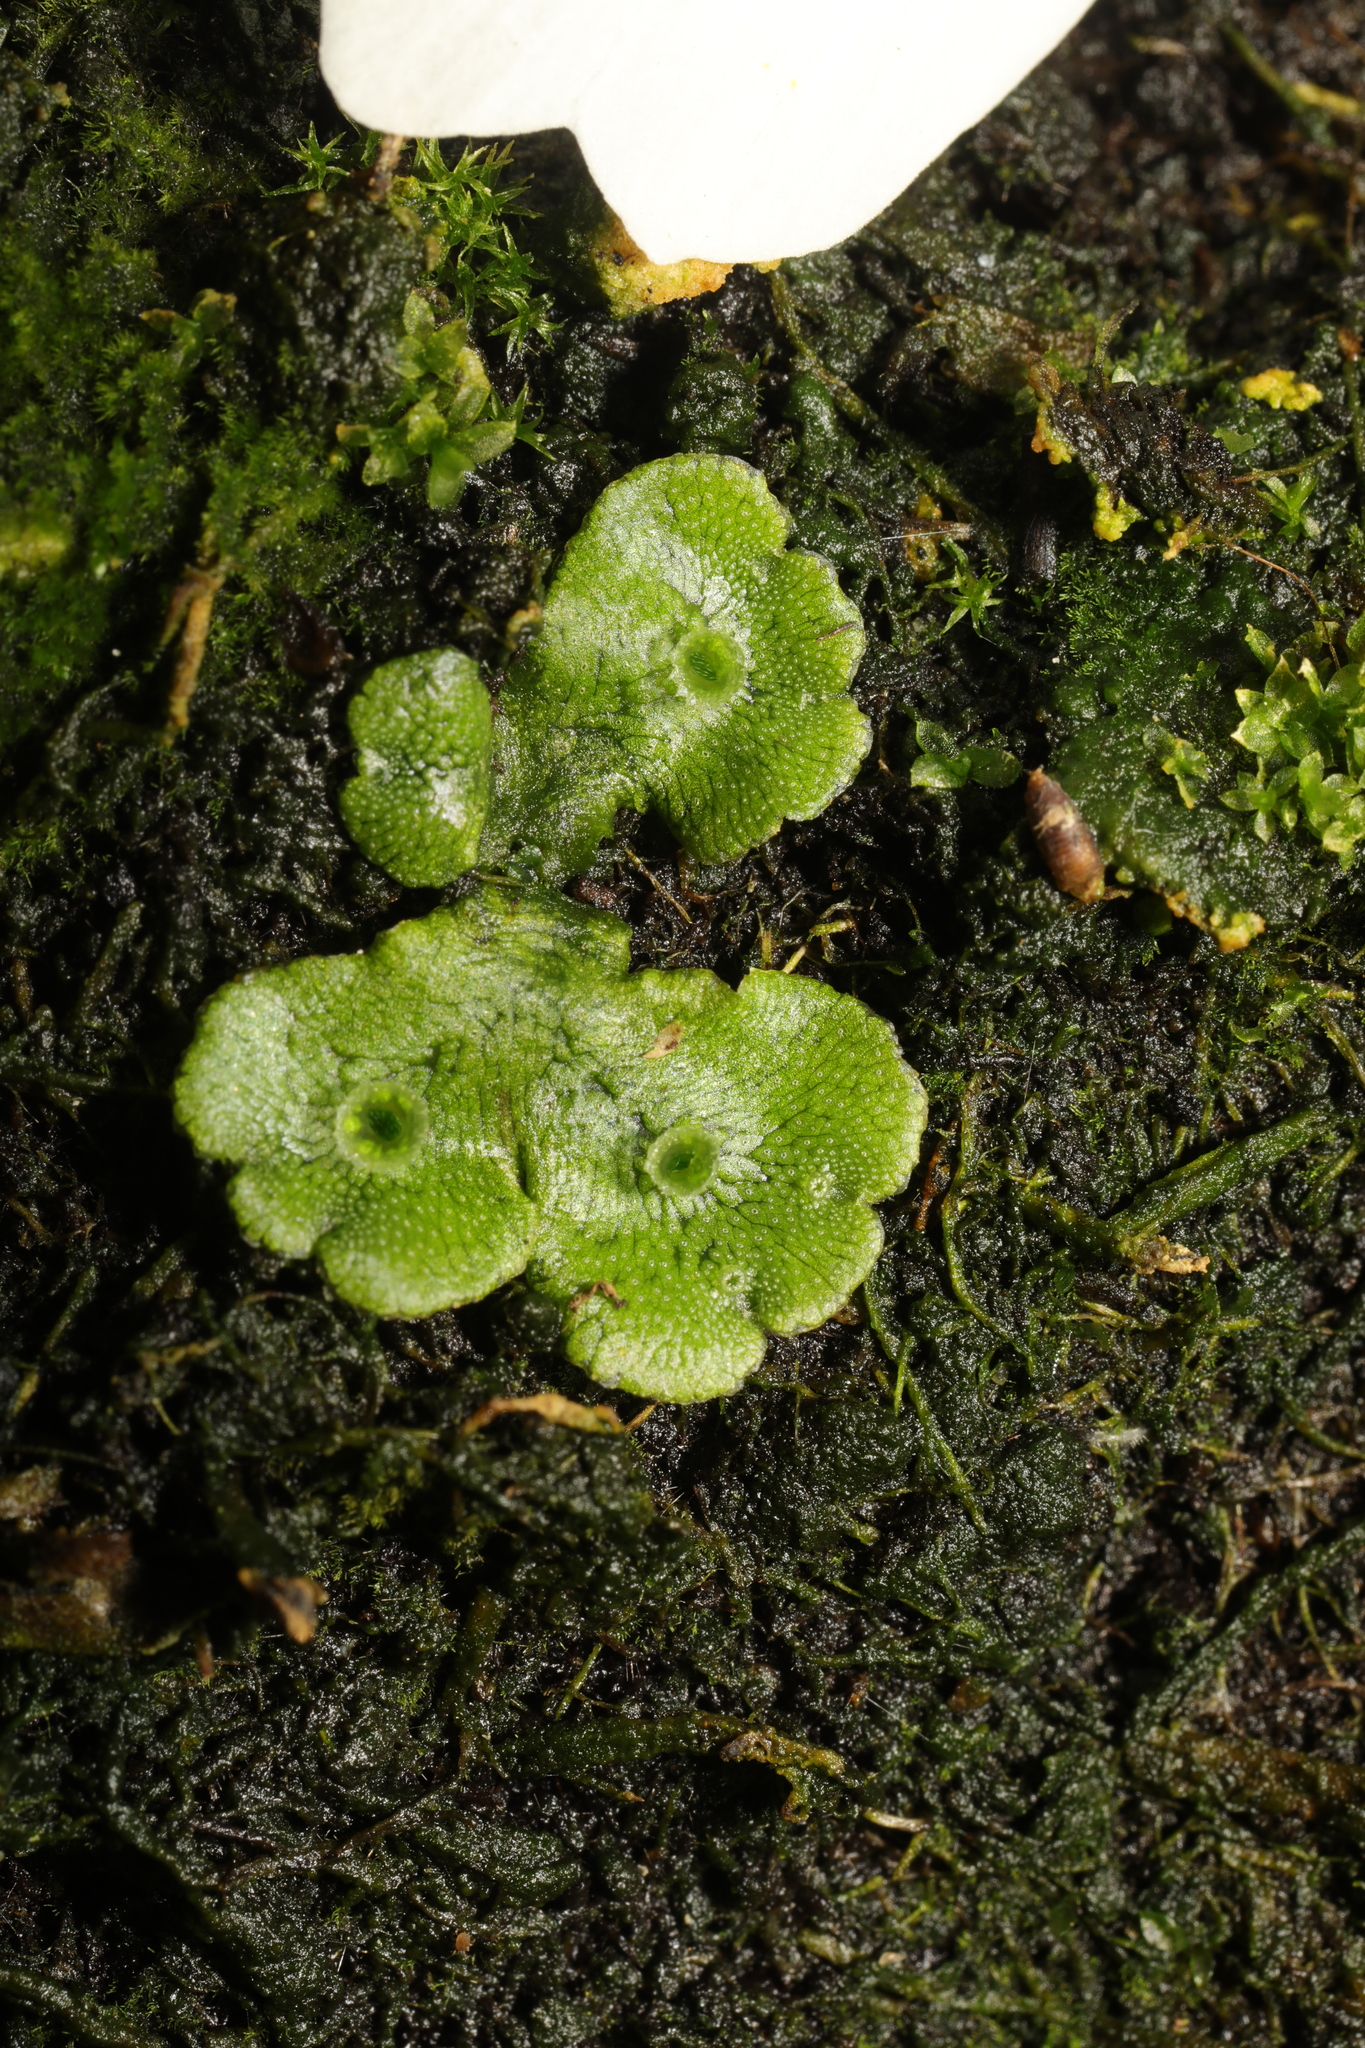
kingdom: Plantae
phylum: Marchantiophyta
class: Marchantiopsida
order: Marchantiales
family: Marchantiaceae
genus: Marchantia
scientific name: Marchantia polymorpha
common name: Common liverwort
